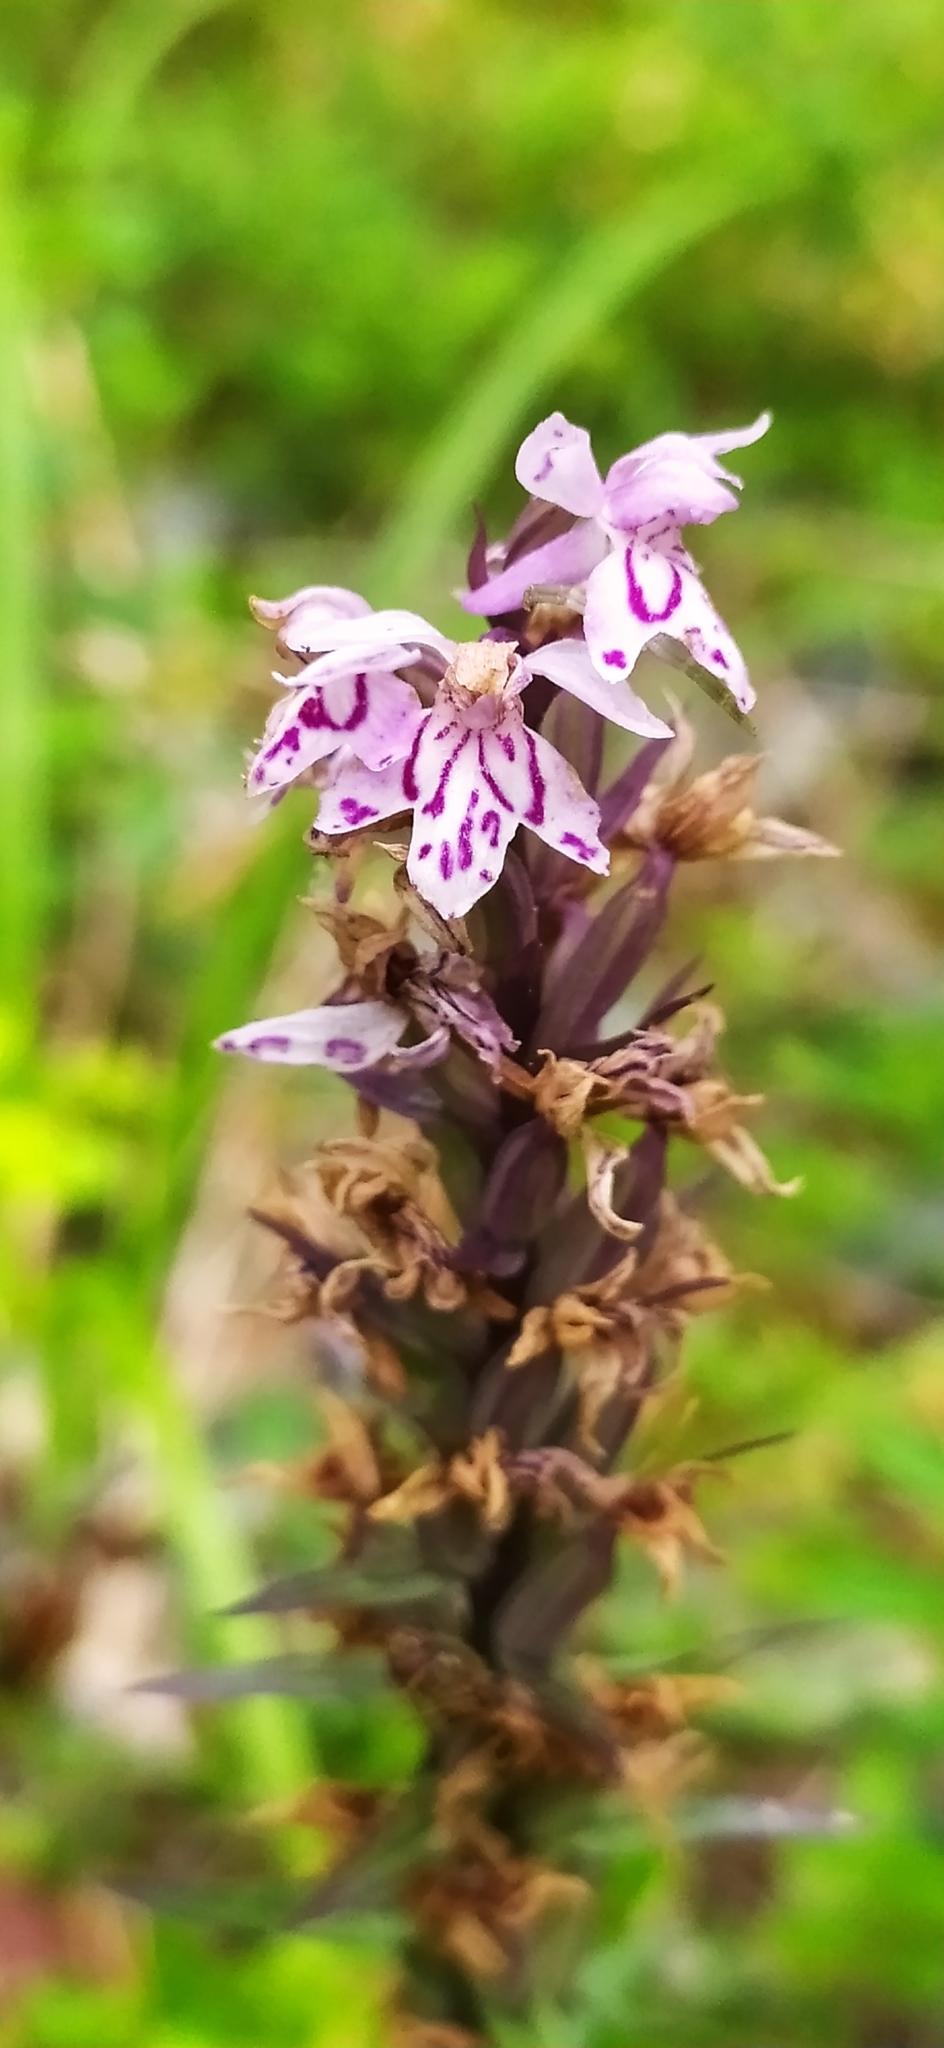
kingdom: Plantae
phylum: Tracheophyta
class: Liliopsida
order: Asparagales
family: Orchidaceae
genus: Dactylorhiza
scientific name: Dactylorhiza maculata
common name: Heath spotted-orchid
